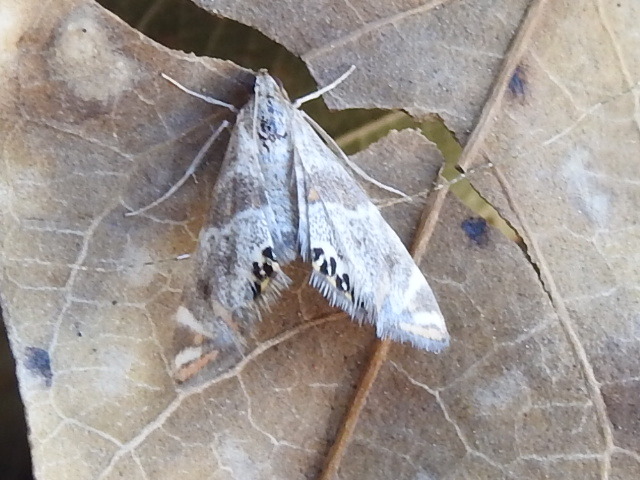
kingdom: Animalia
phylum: Arthropoda
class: Insecta
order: Lepidoptera
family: Crambidae
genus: Petrophila
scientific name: Petrophila jaliscalis
